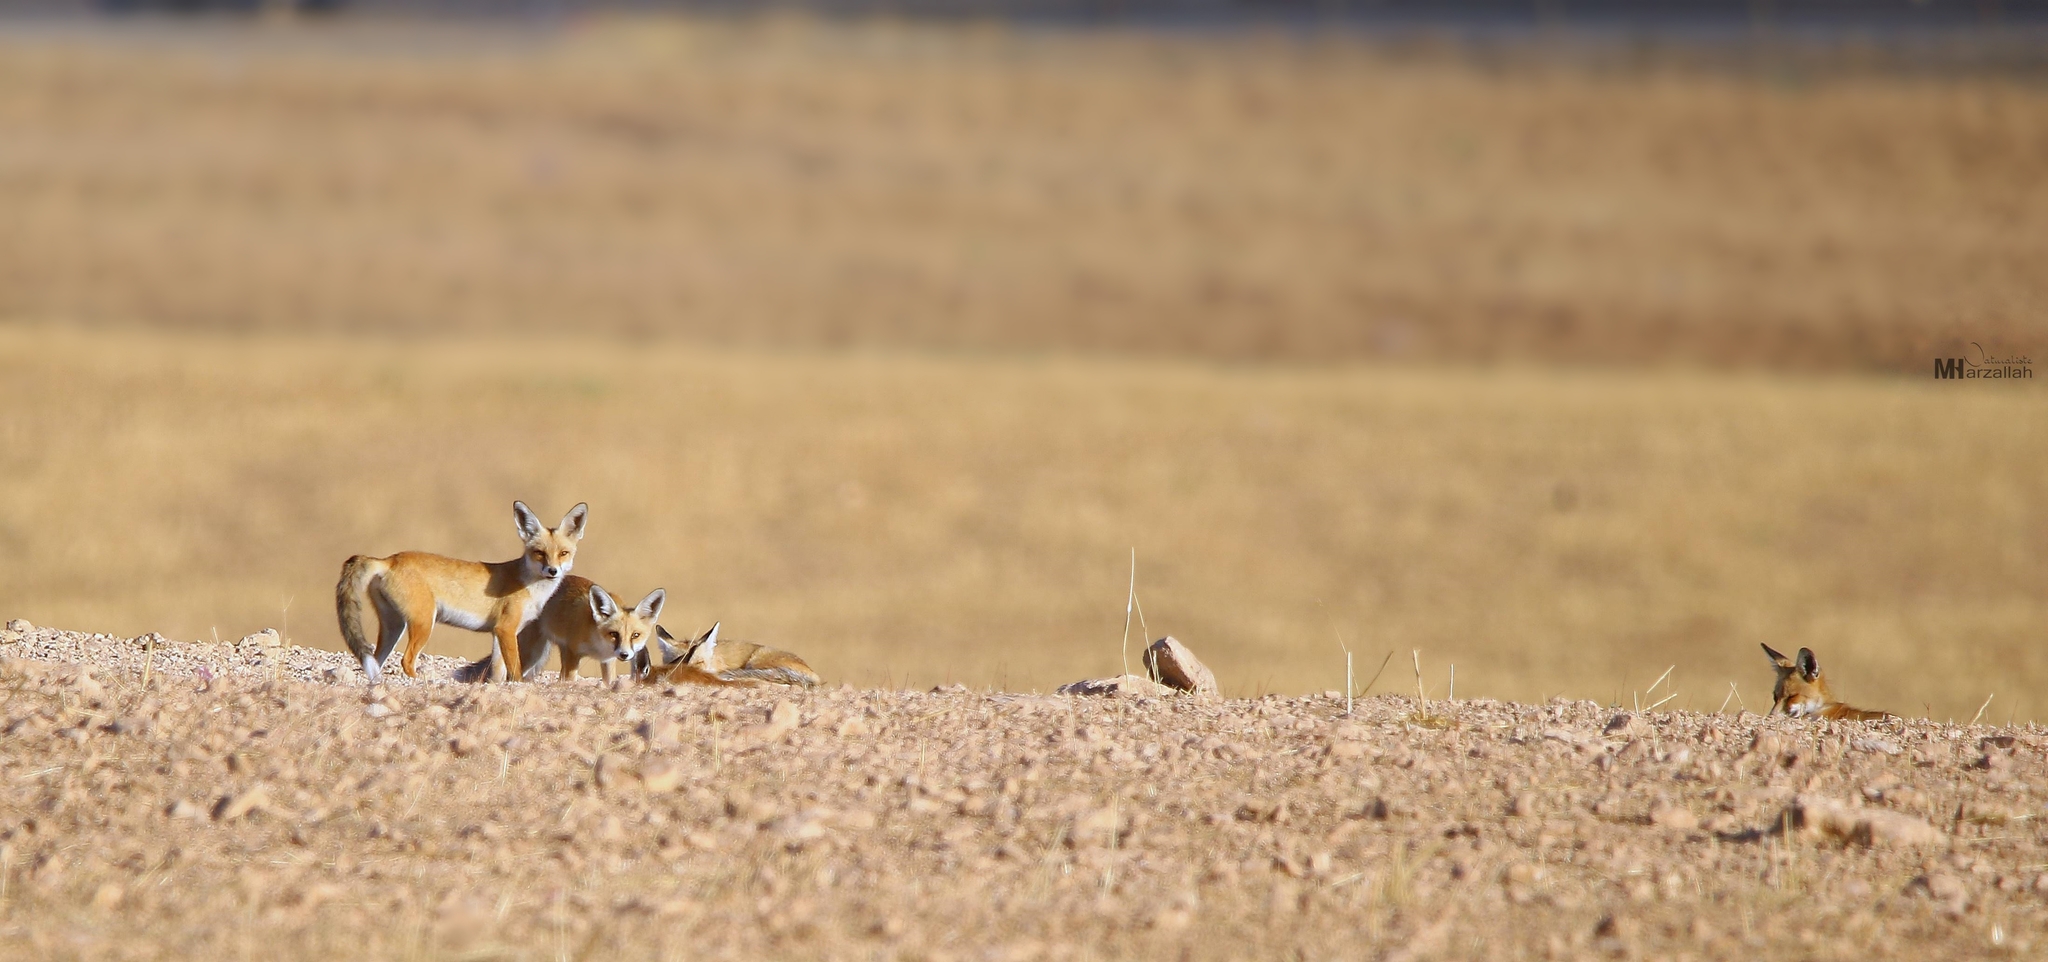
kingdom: Animalia
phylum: Chordata
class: Mammalia
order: Carnivora
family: Canidae
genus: Vulpes
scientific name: Vulpes vulpes
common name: Red fox
